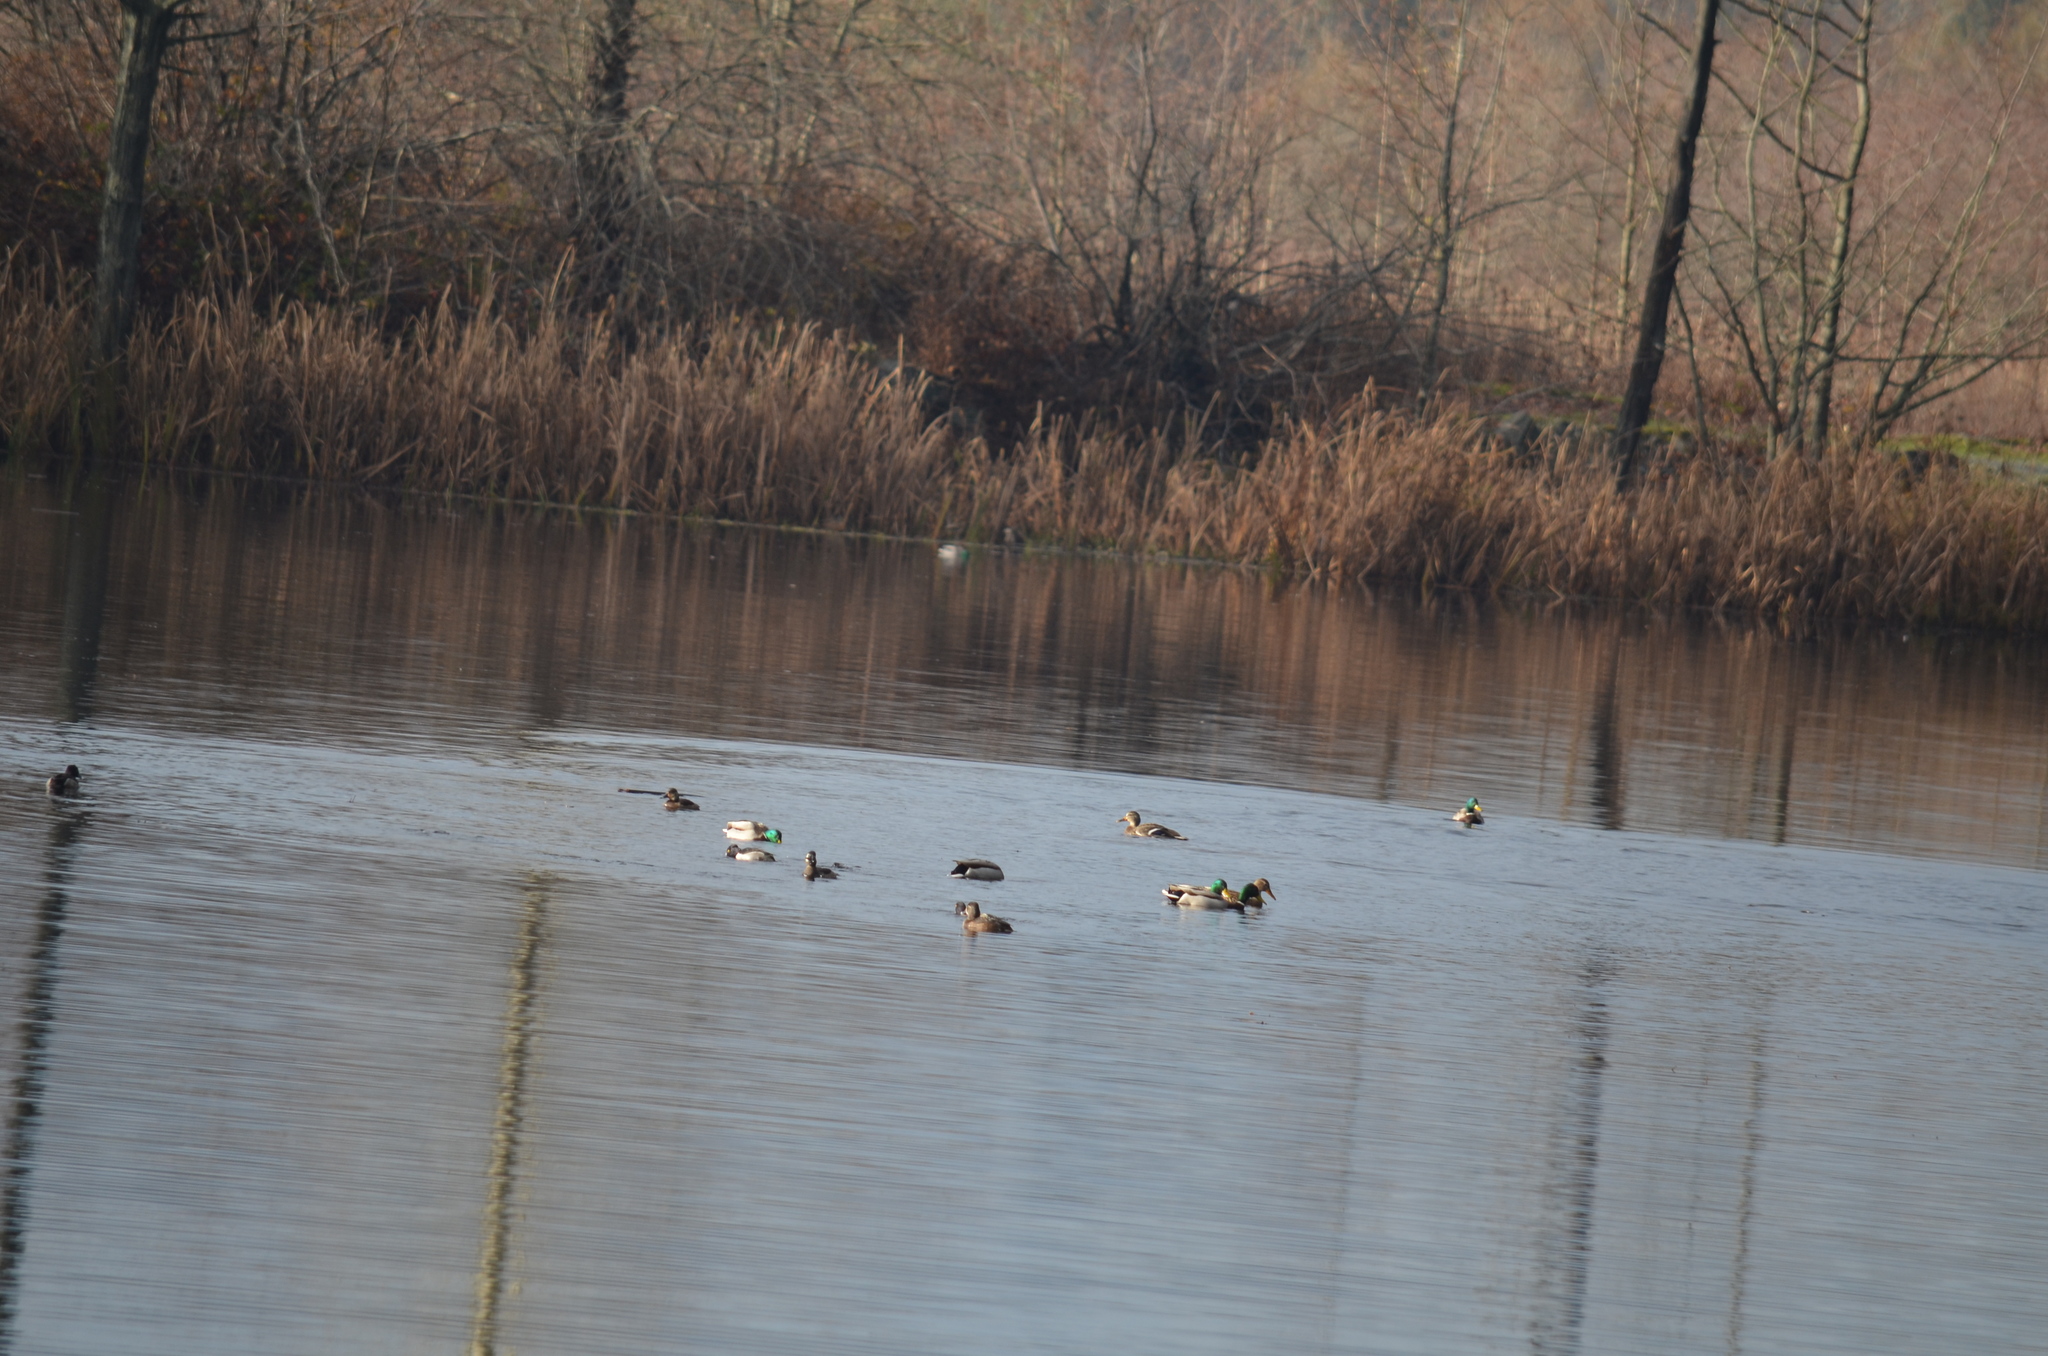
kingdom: Animalia
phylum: Chordata
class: Aves
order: Anseriformes
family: Anatidae
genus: Anas
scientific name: Anas platyrhynchos
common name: Mallard
